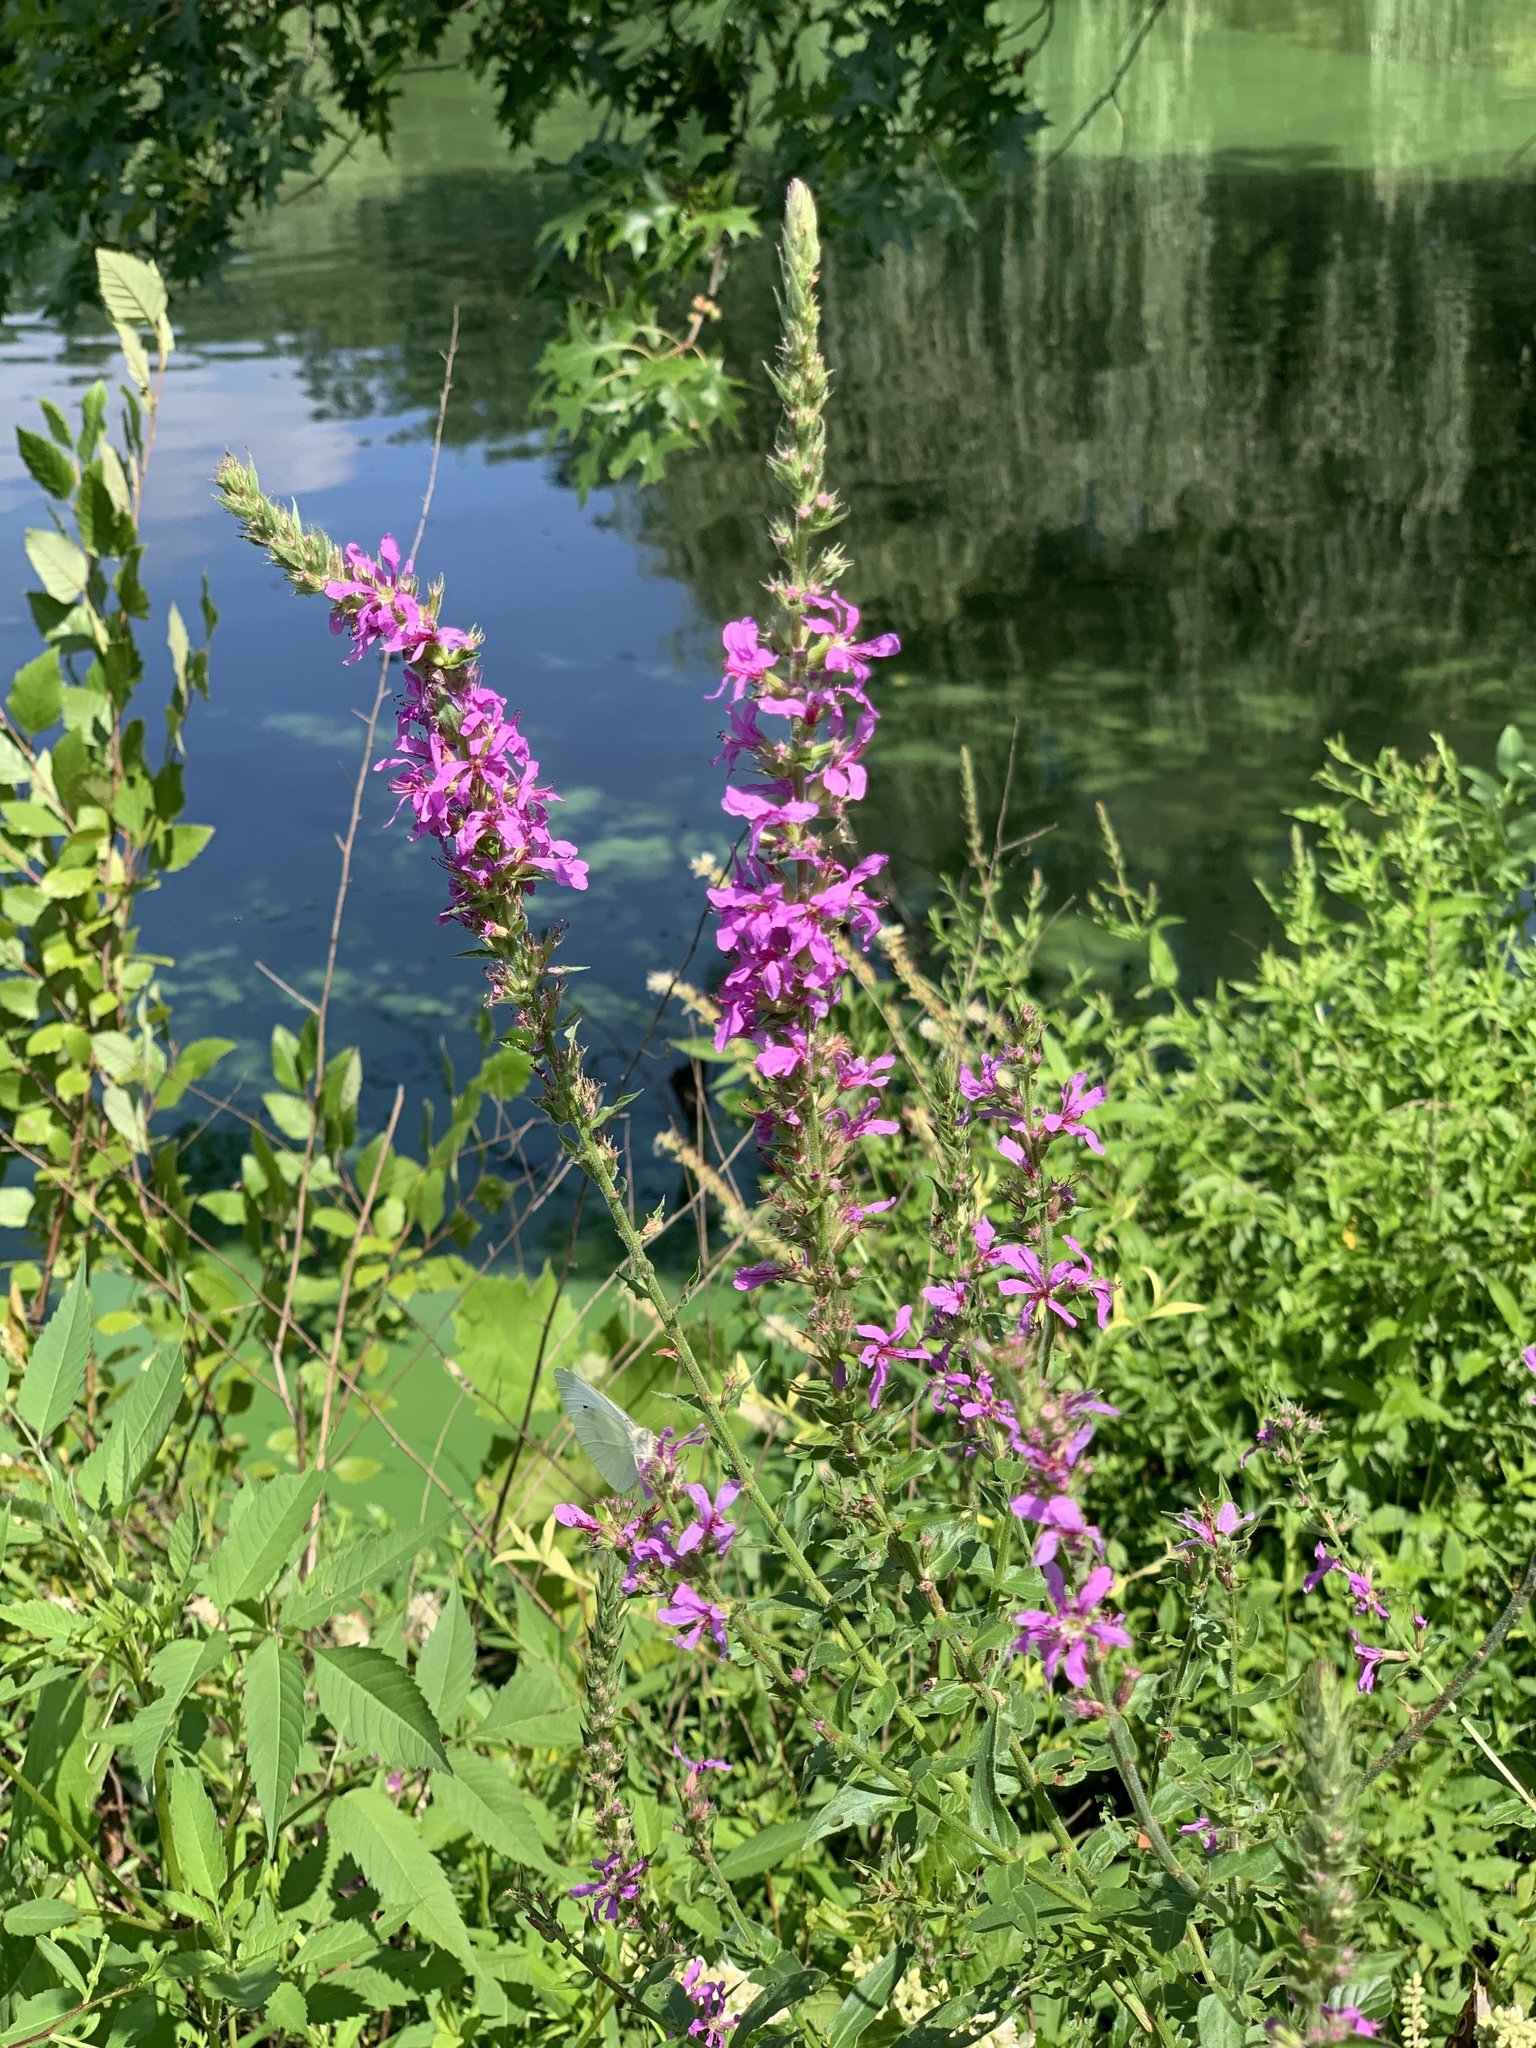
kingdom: Plantae
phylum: Tracheophyta
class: Magnoliopsida
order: Myrtales
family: Lythraceae
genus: Lythrum
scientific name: Lythrum salicaria
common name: Purple loosestrife
